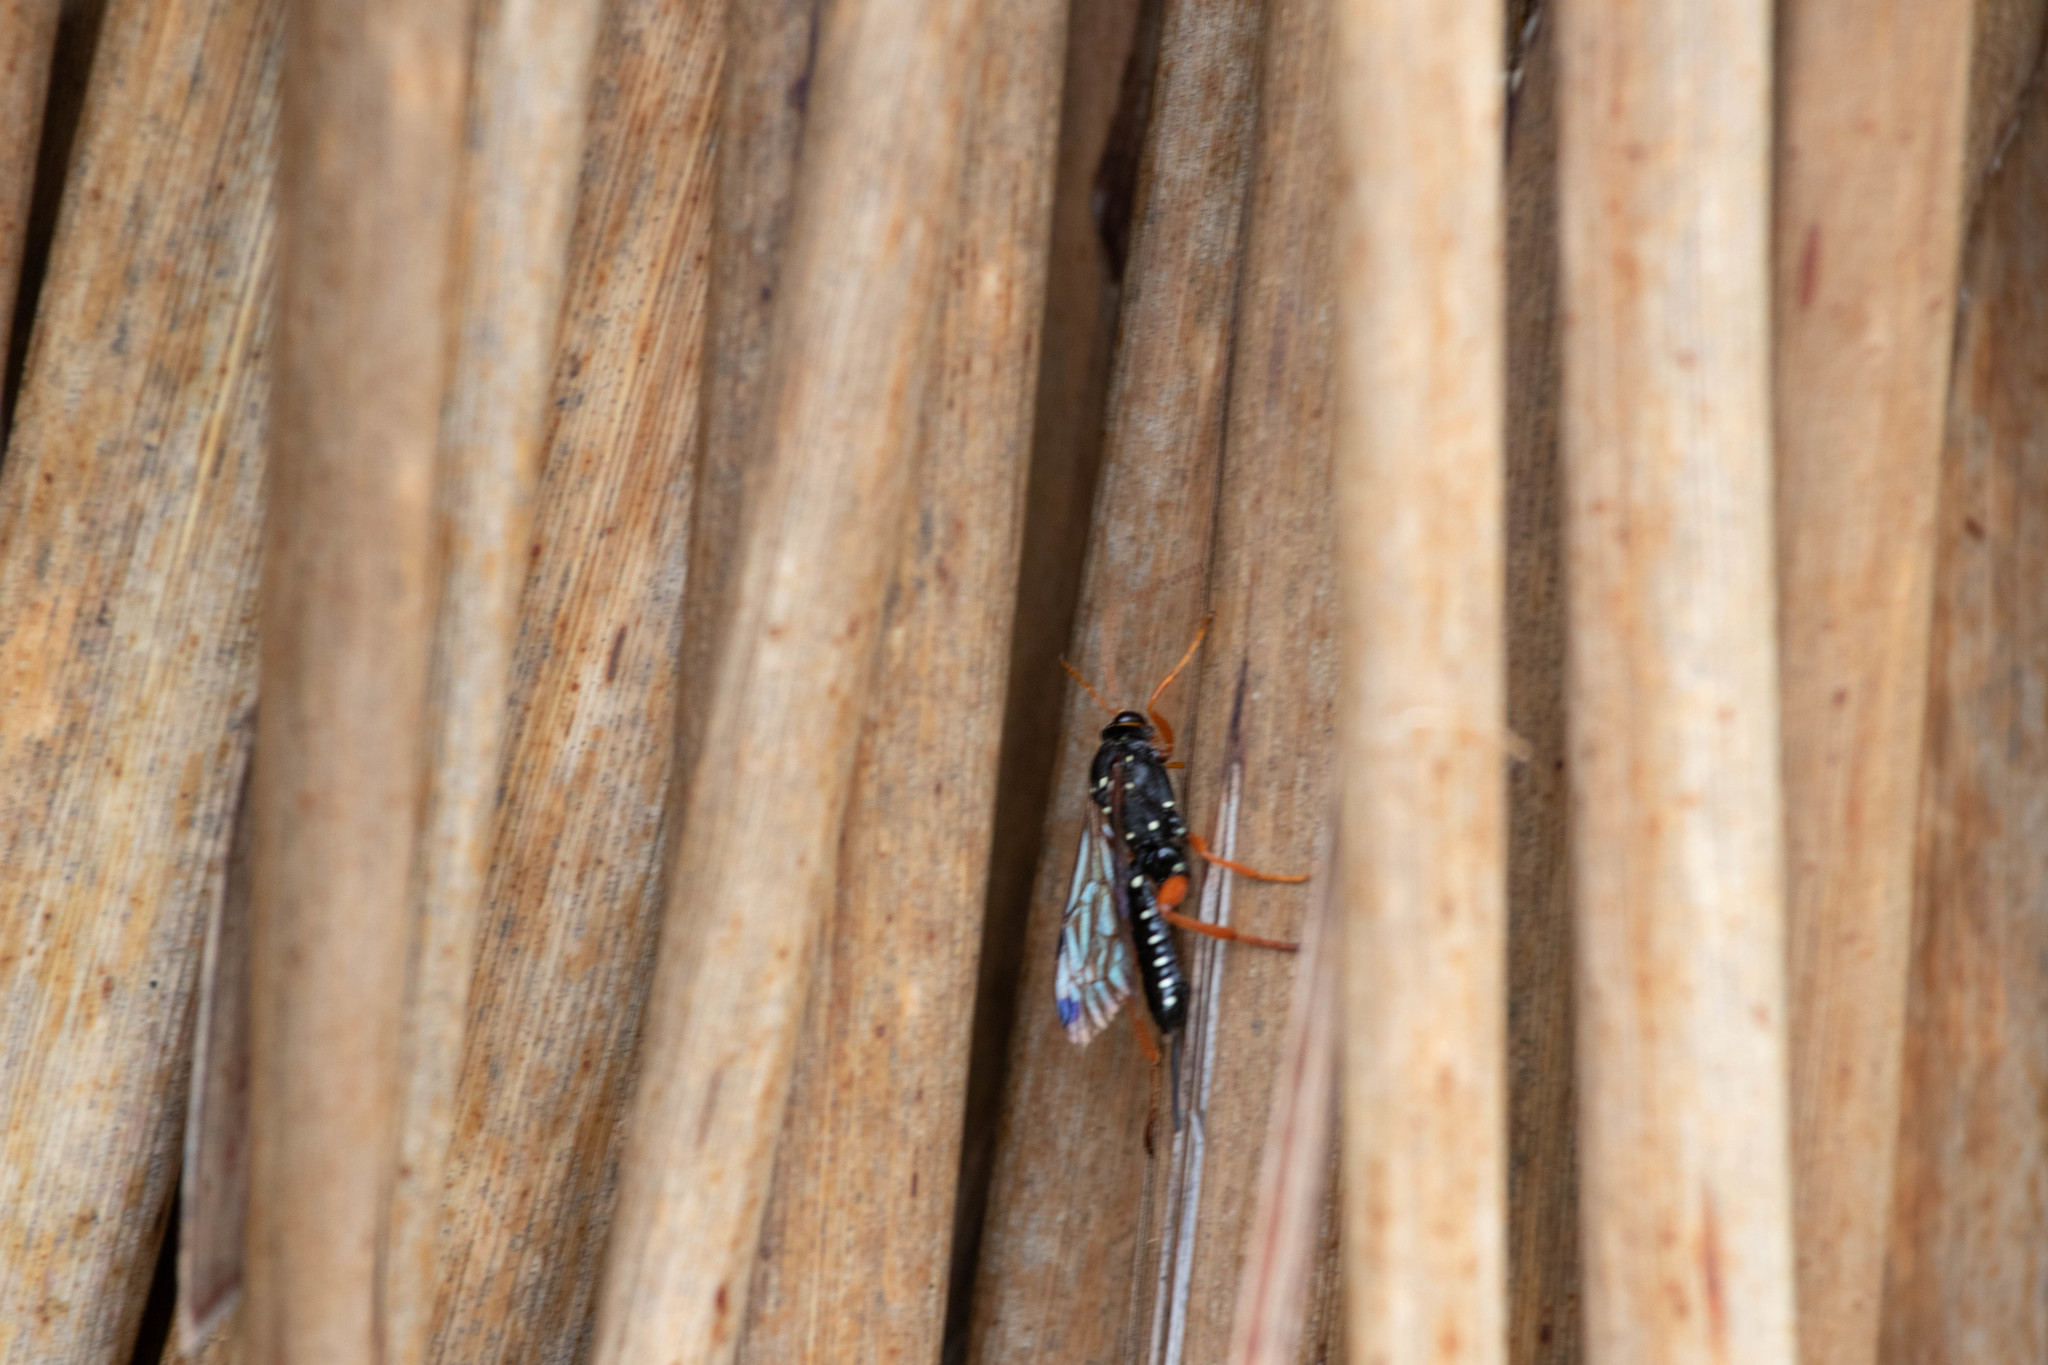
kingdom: Animalia
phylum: Arthropoda
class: Insecta
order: Hymenoptera
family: Ichneumonidae
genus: Echthromorpha
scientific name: Echthromorpha intricatoria
